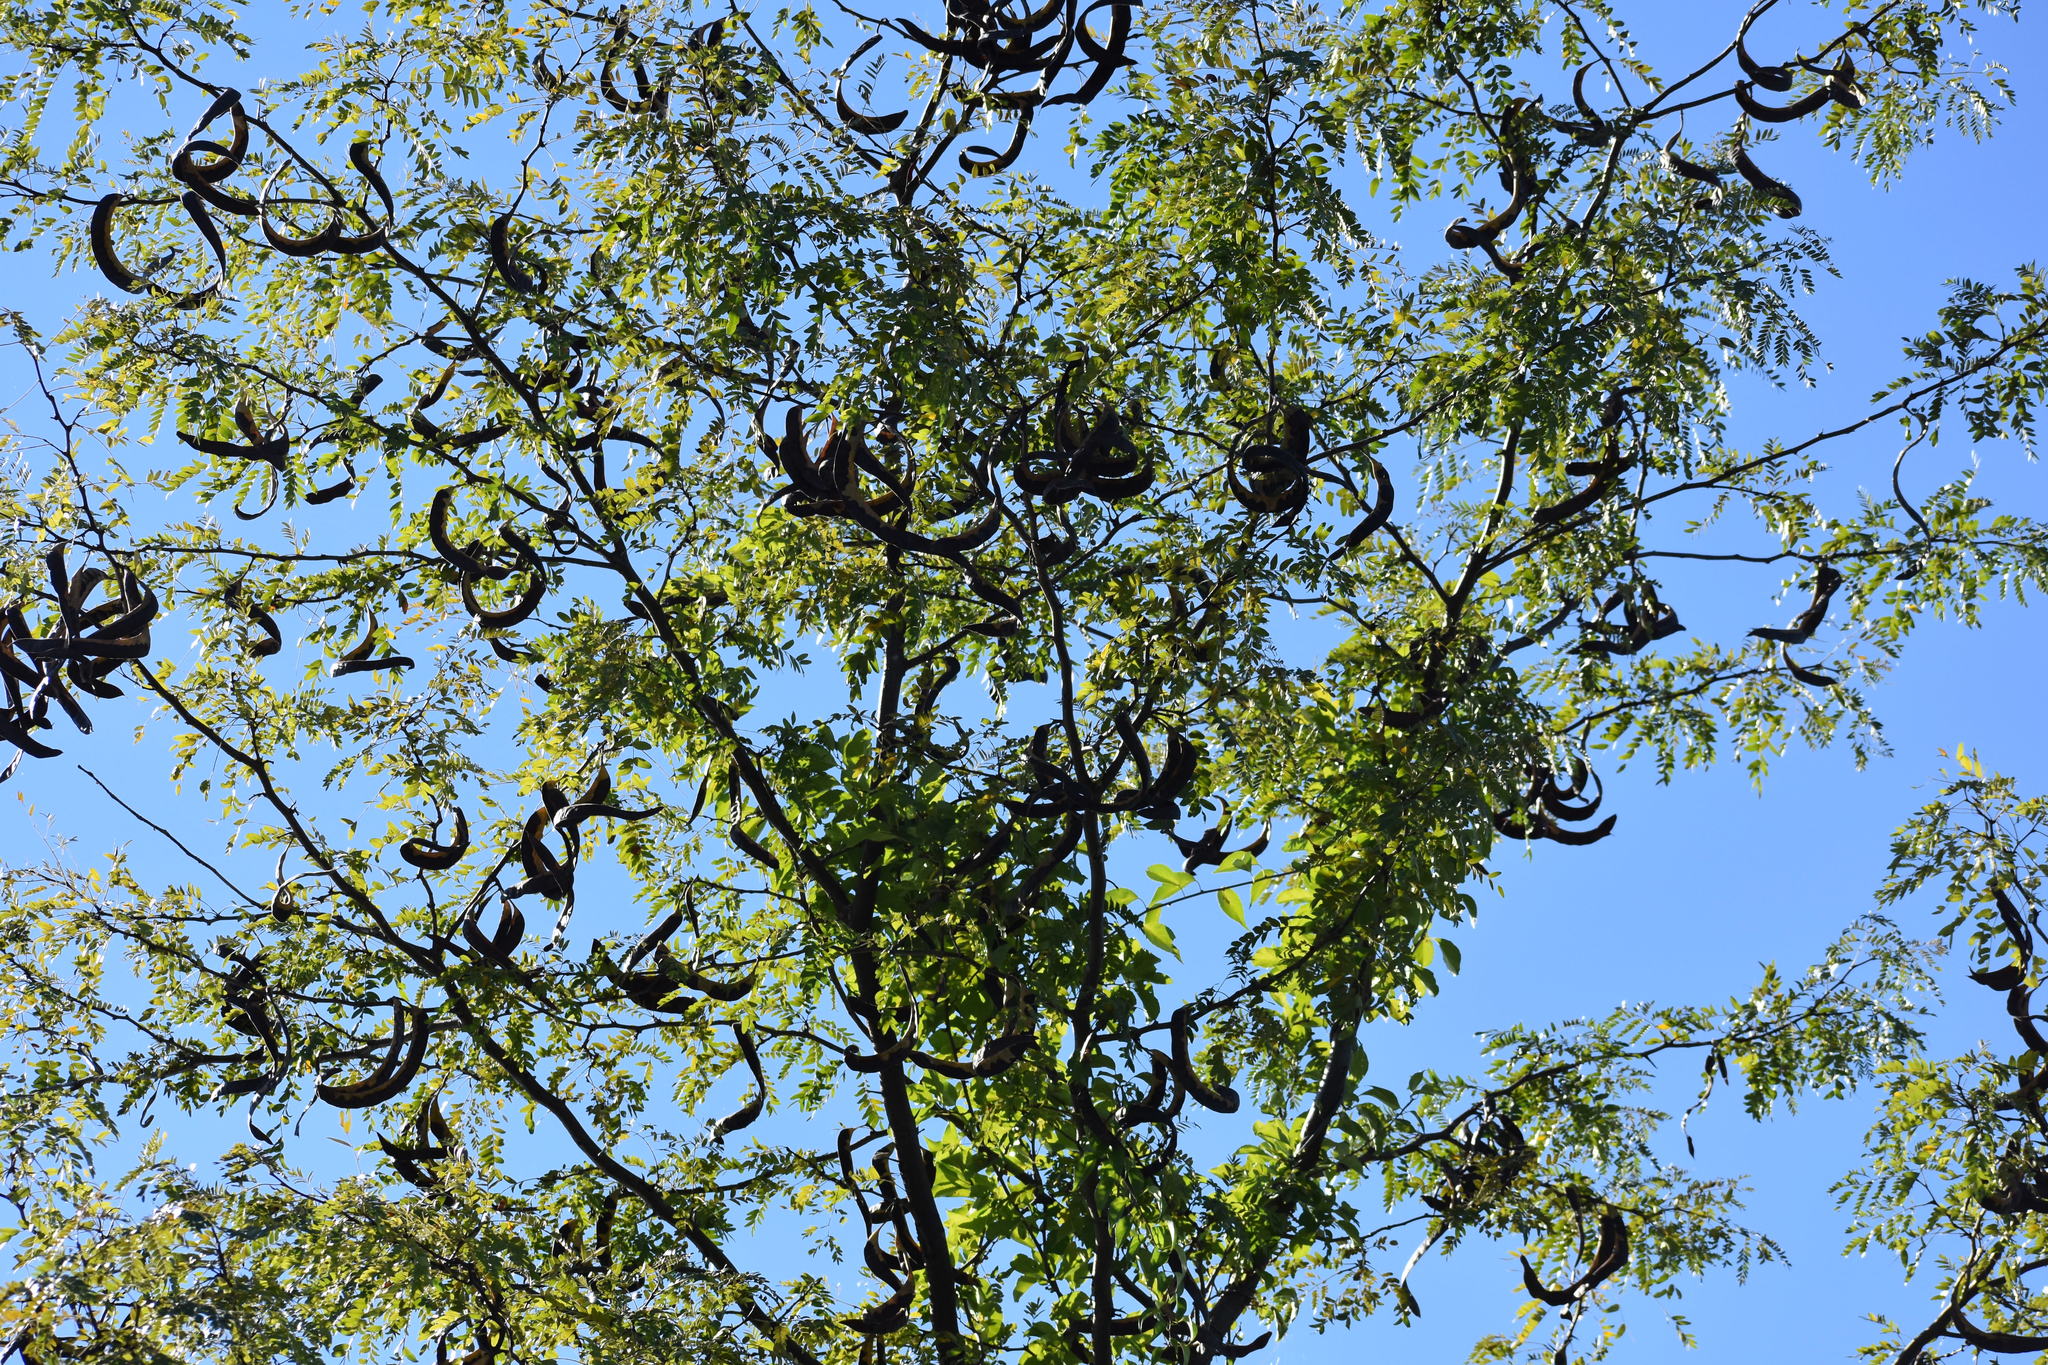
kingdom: Plantae
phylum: Tracheophyta
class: Magnoliopsida
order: Fabales
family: Fabaceae
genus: Gleditsia
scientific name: Gleditsia triacanthos
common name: Common honeylocust
